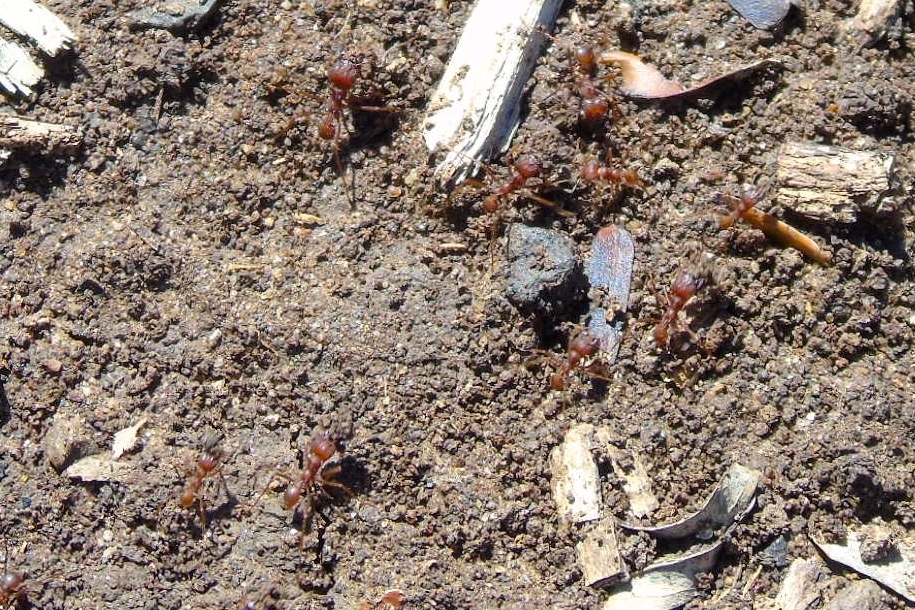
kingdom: Animalia
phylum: Arthropoda
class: Insecta
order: Hymenoptera
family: Formicidae
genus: Atta
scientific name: Atta mexicana
